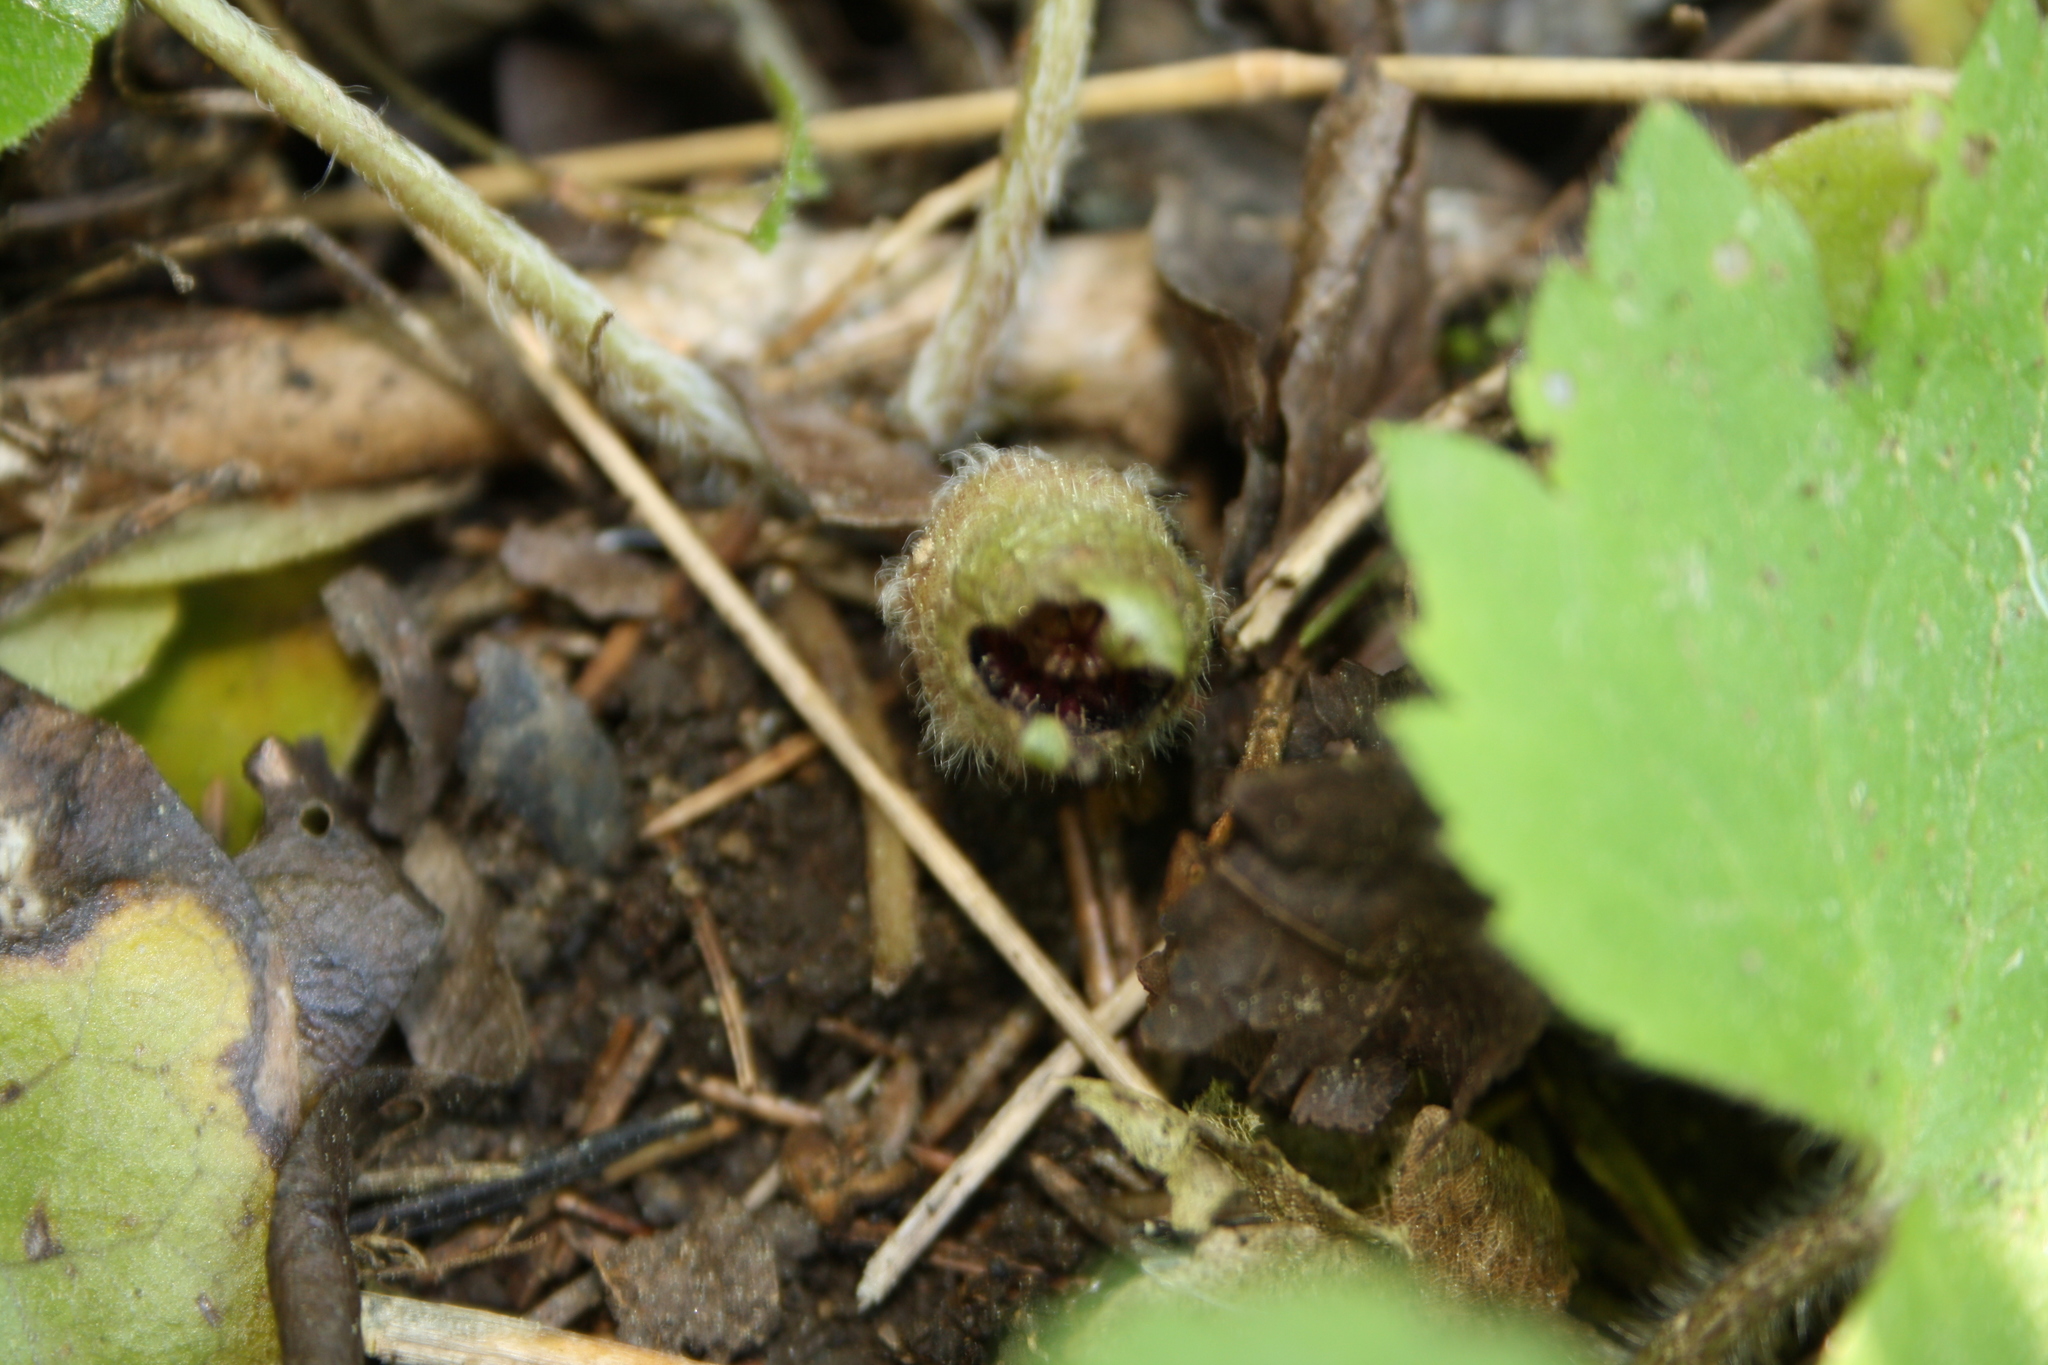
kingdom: Plantae
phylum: Tracheophyta
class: Magnoliopsida
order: Piperales
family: Aristolochiaceae
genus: Asarum
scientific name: Asarum europaeum
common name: Asarabacca
